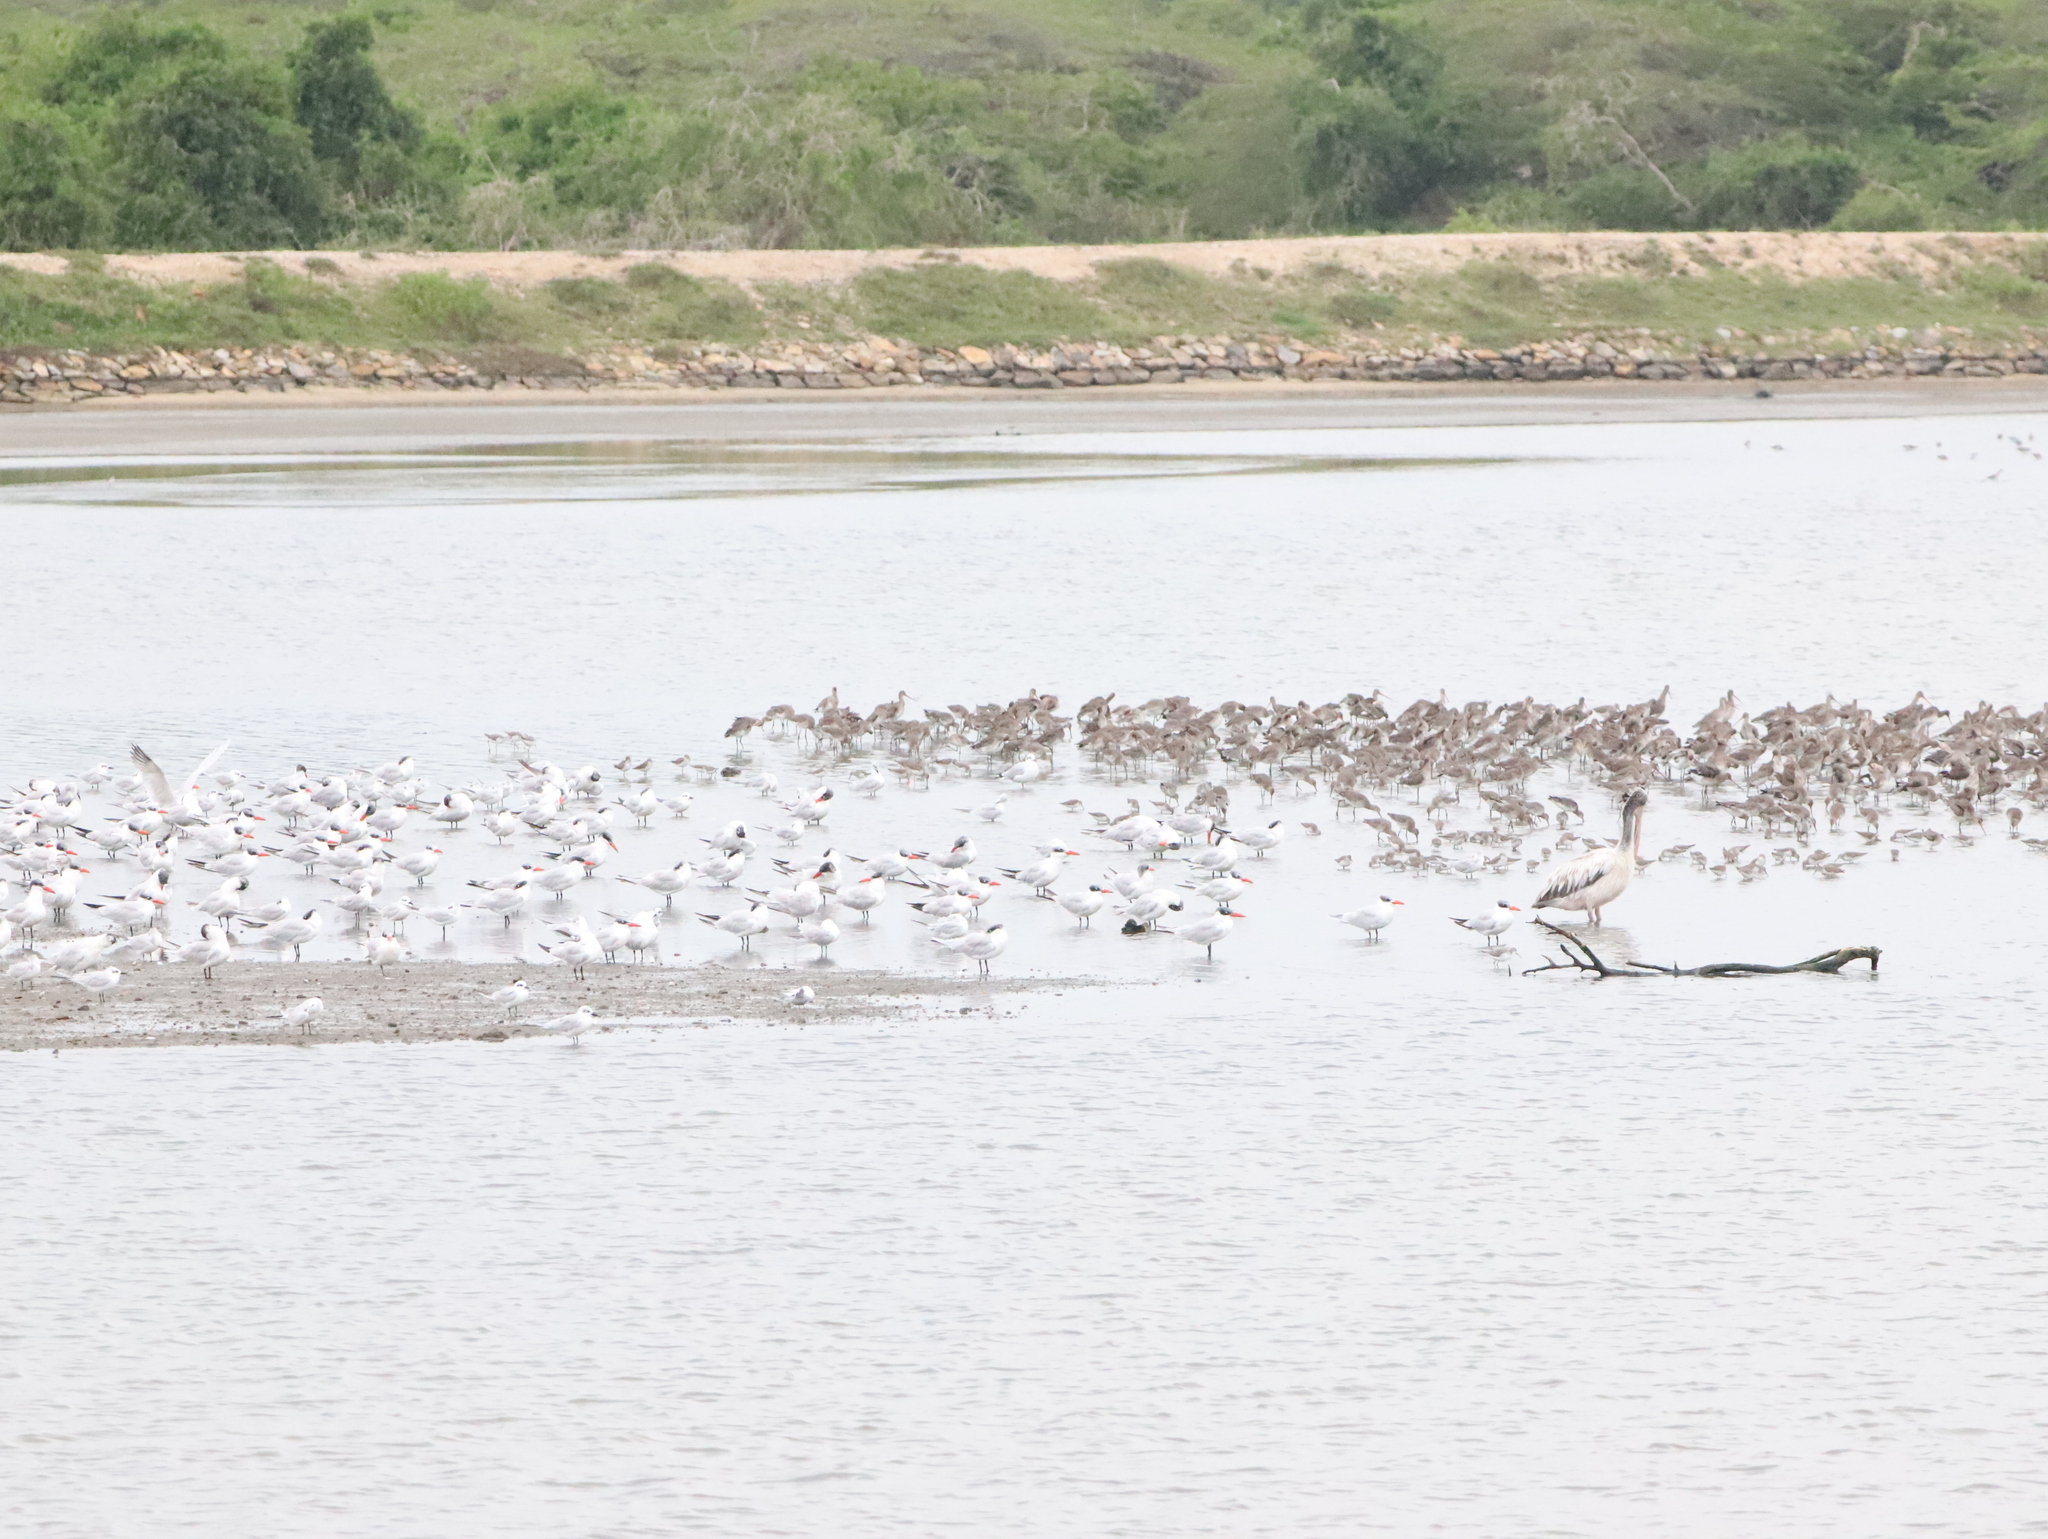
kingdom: Animalia
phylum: Chordata
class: Aves
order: Charadriiformes
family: Scolopacidae
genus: Calidris
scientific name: Calidris ferruginea
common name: Curlew sandpiper
